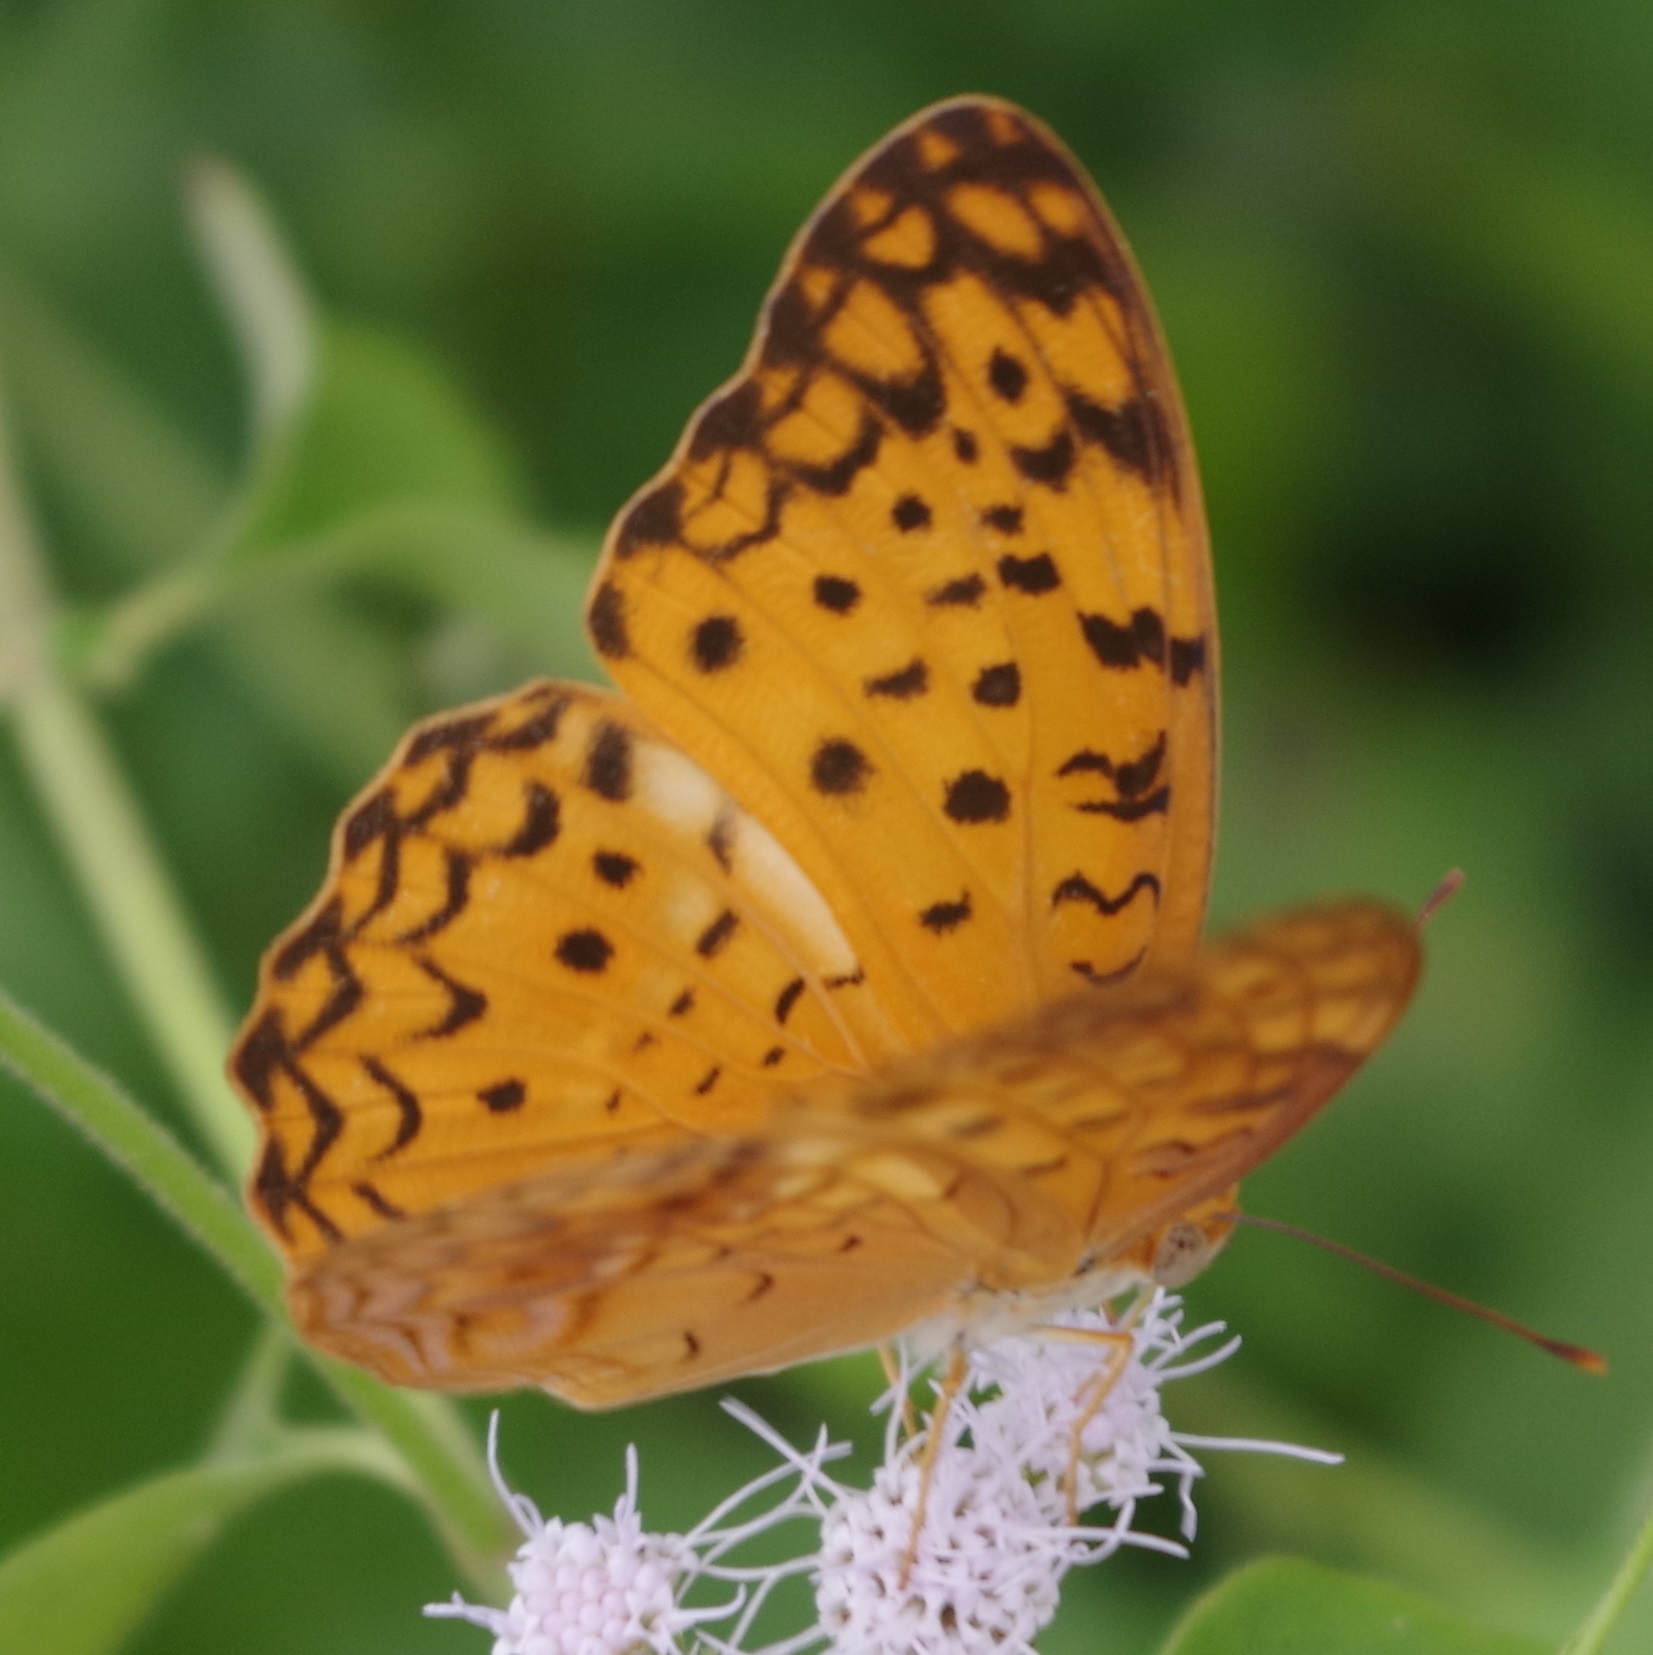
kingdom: Animalia
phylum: Arthropoda
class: Insecta
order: Lepidoptera
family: Nymphalidae
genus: Phalanta
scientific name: Phalanta phalantha
